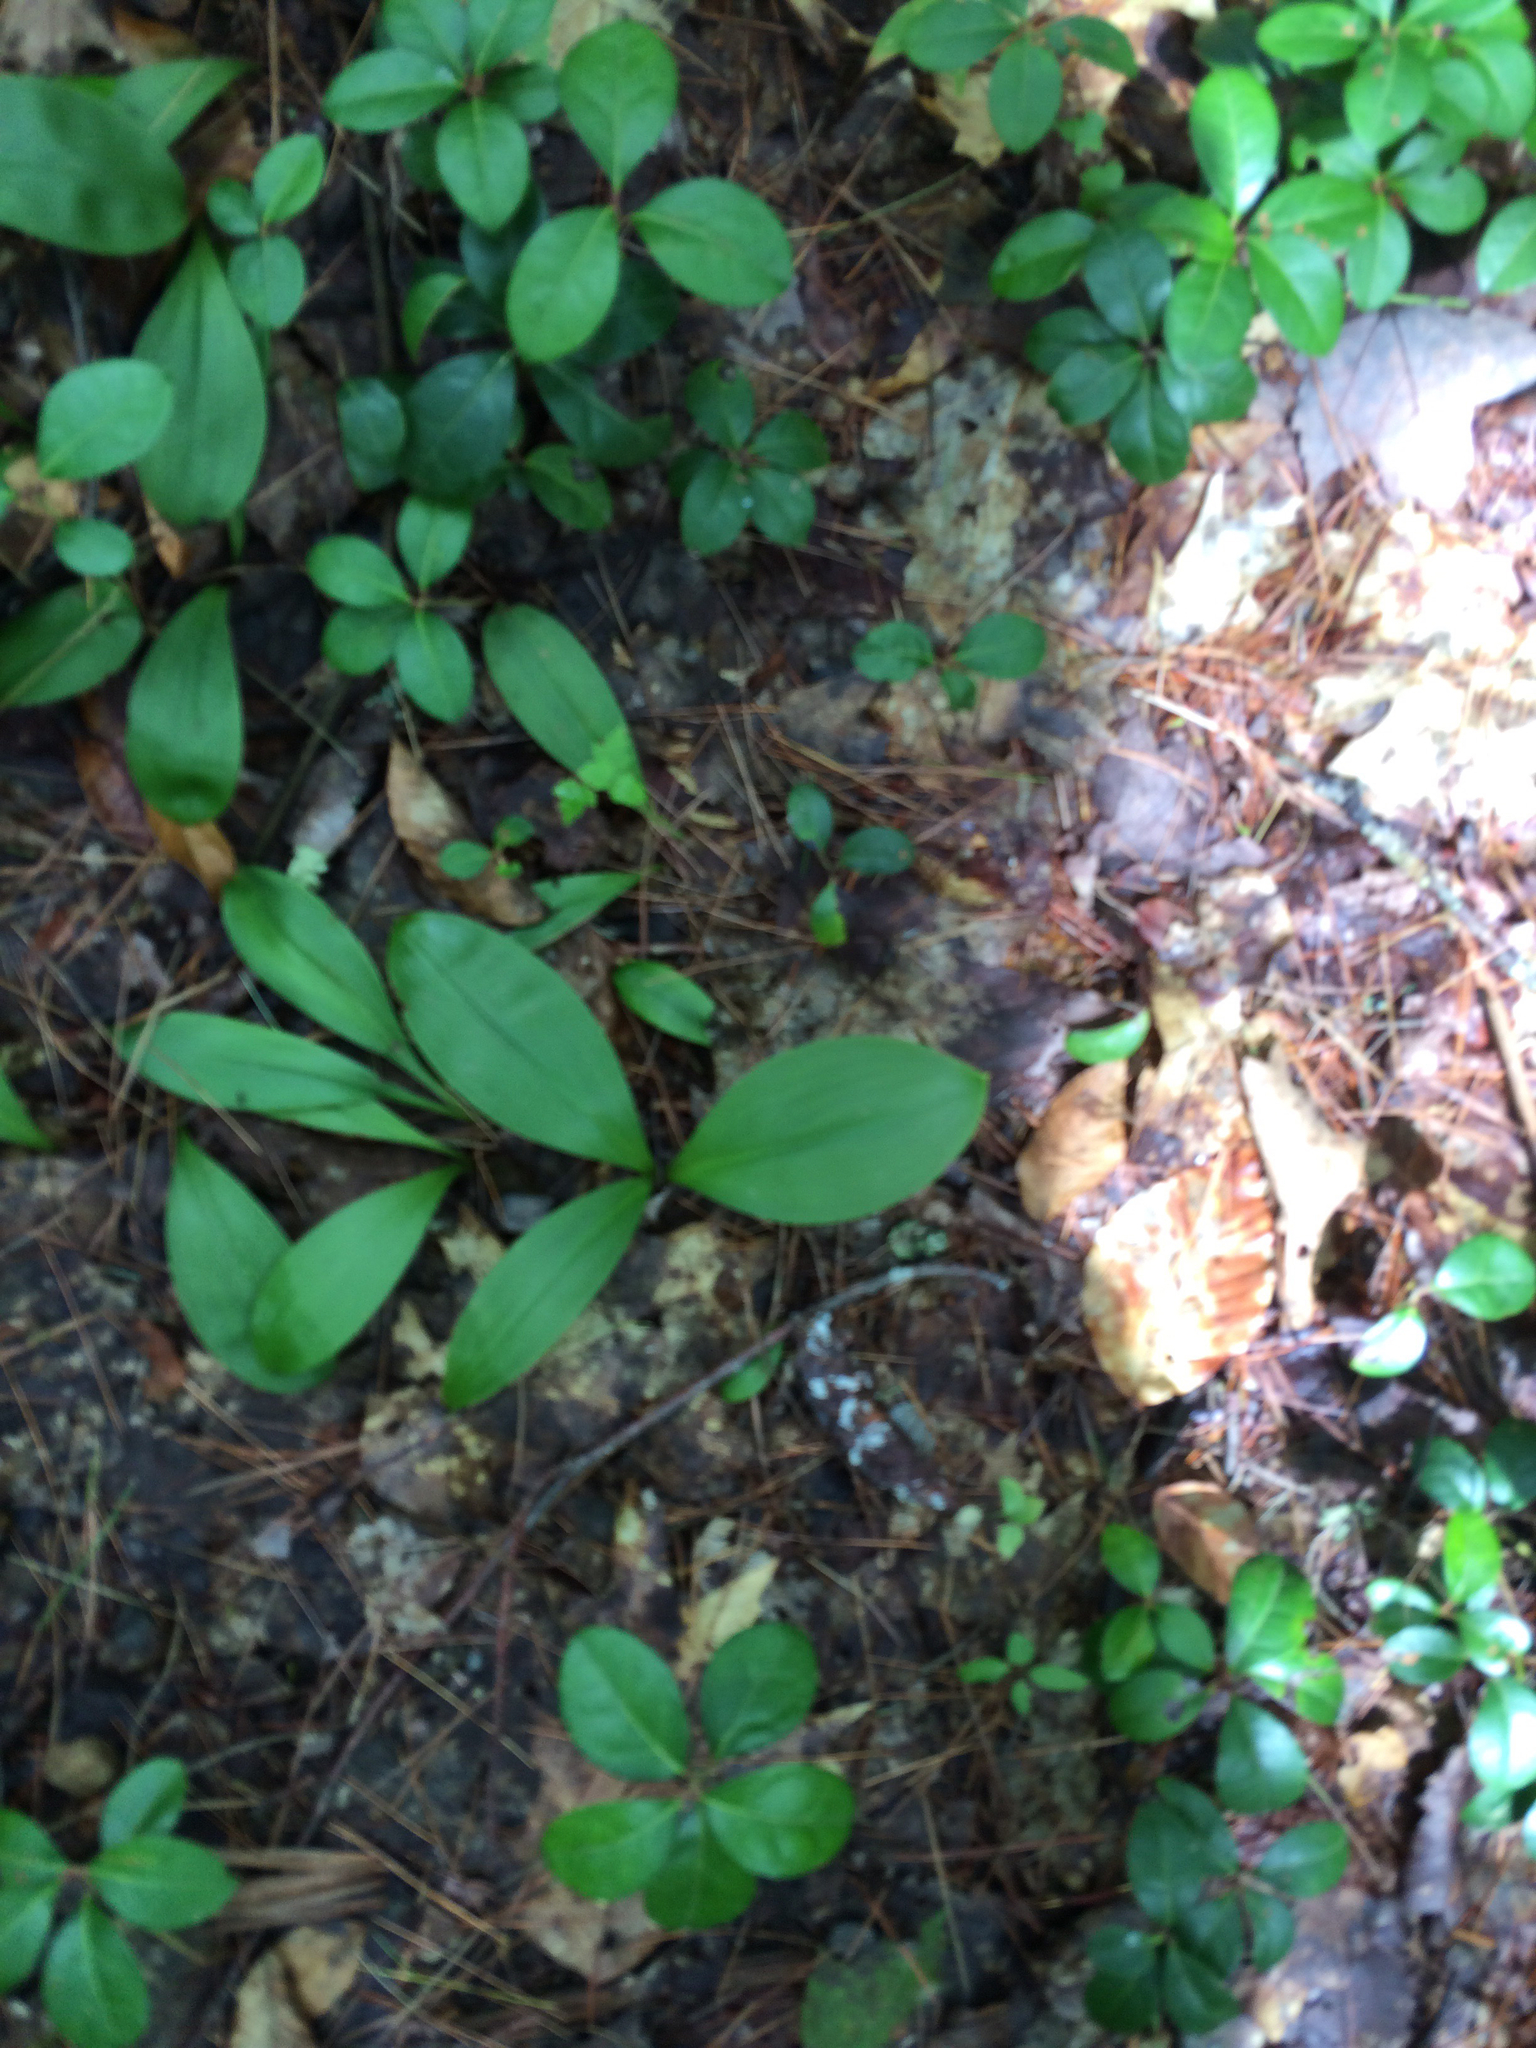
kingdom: Plantae
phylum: Tracheophyta
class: Liliopsida
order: Liliales
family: Liliaceae
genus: Clintonia
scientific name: Clintonia borealis
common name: Yellow clintonia
